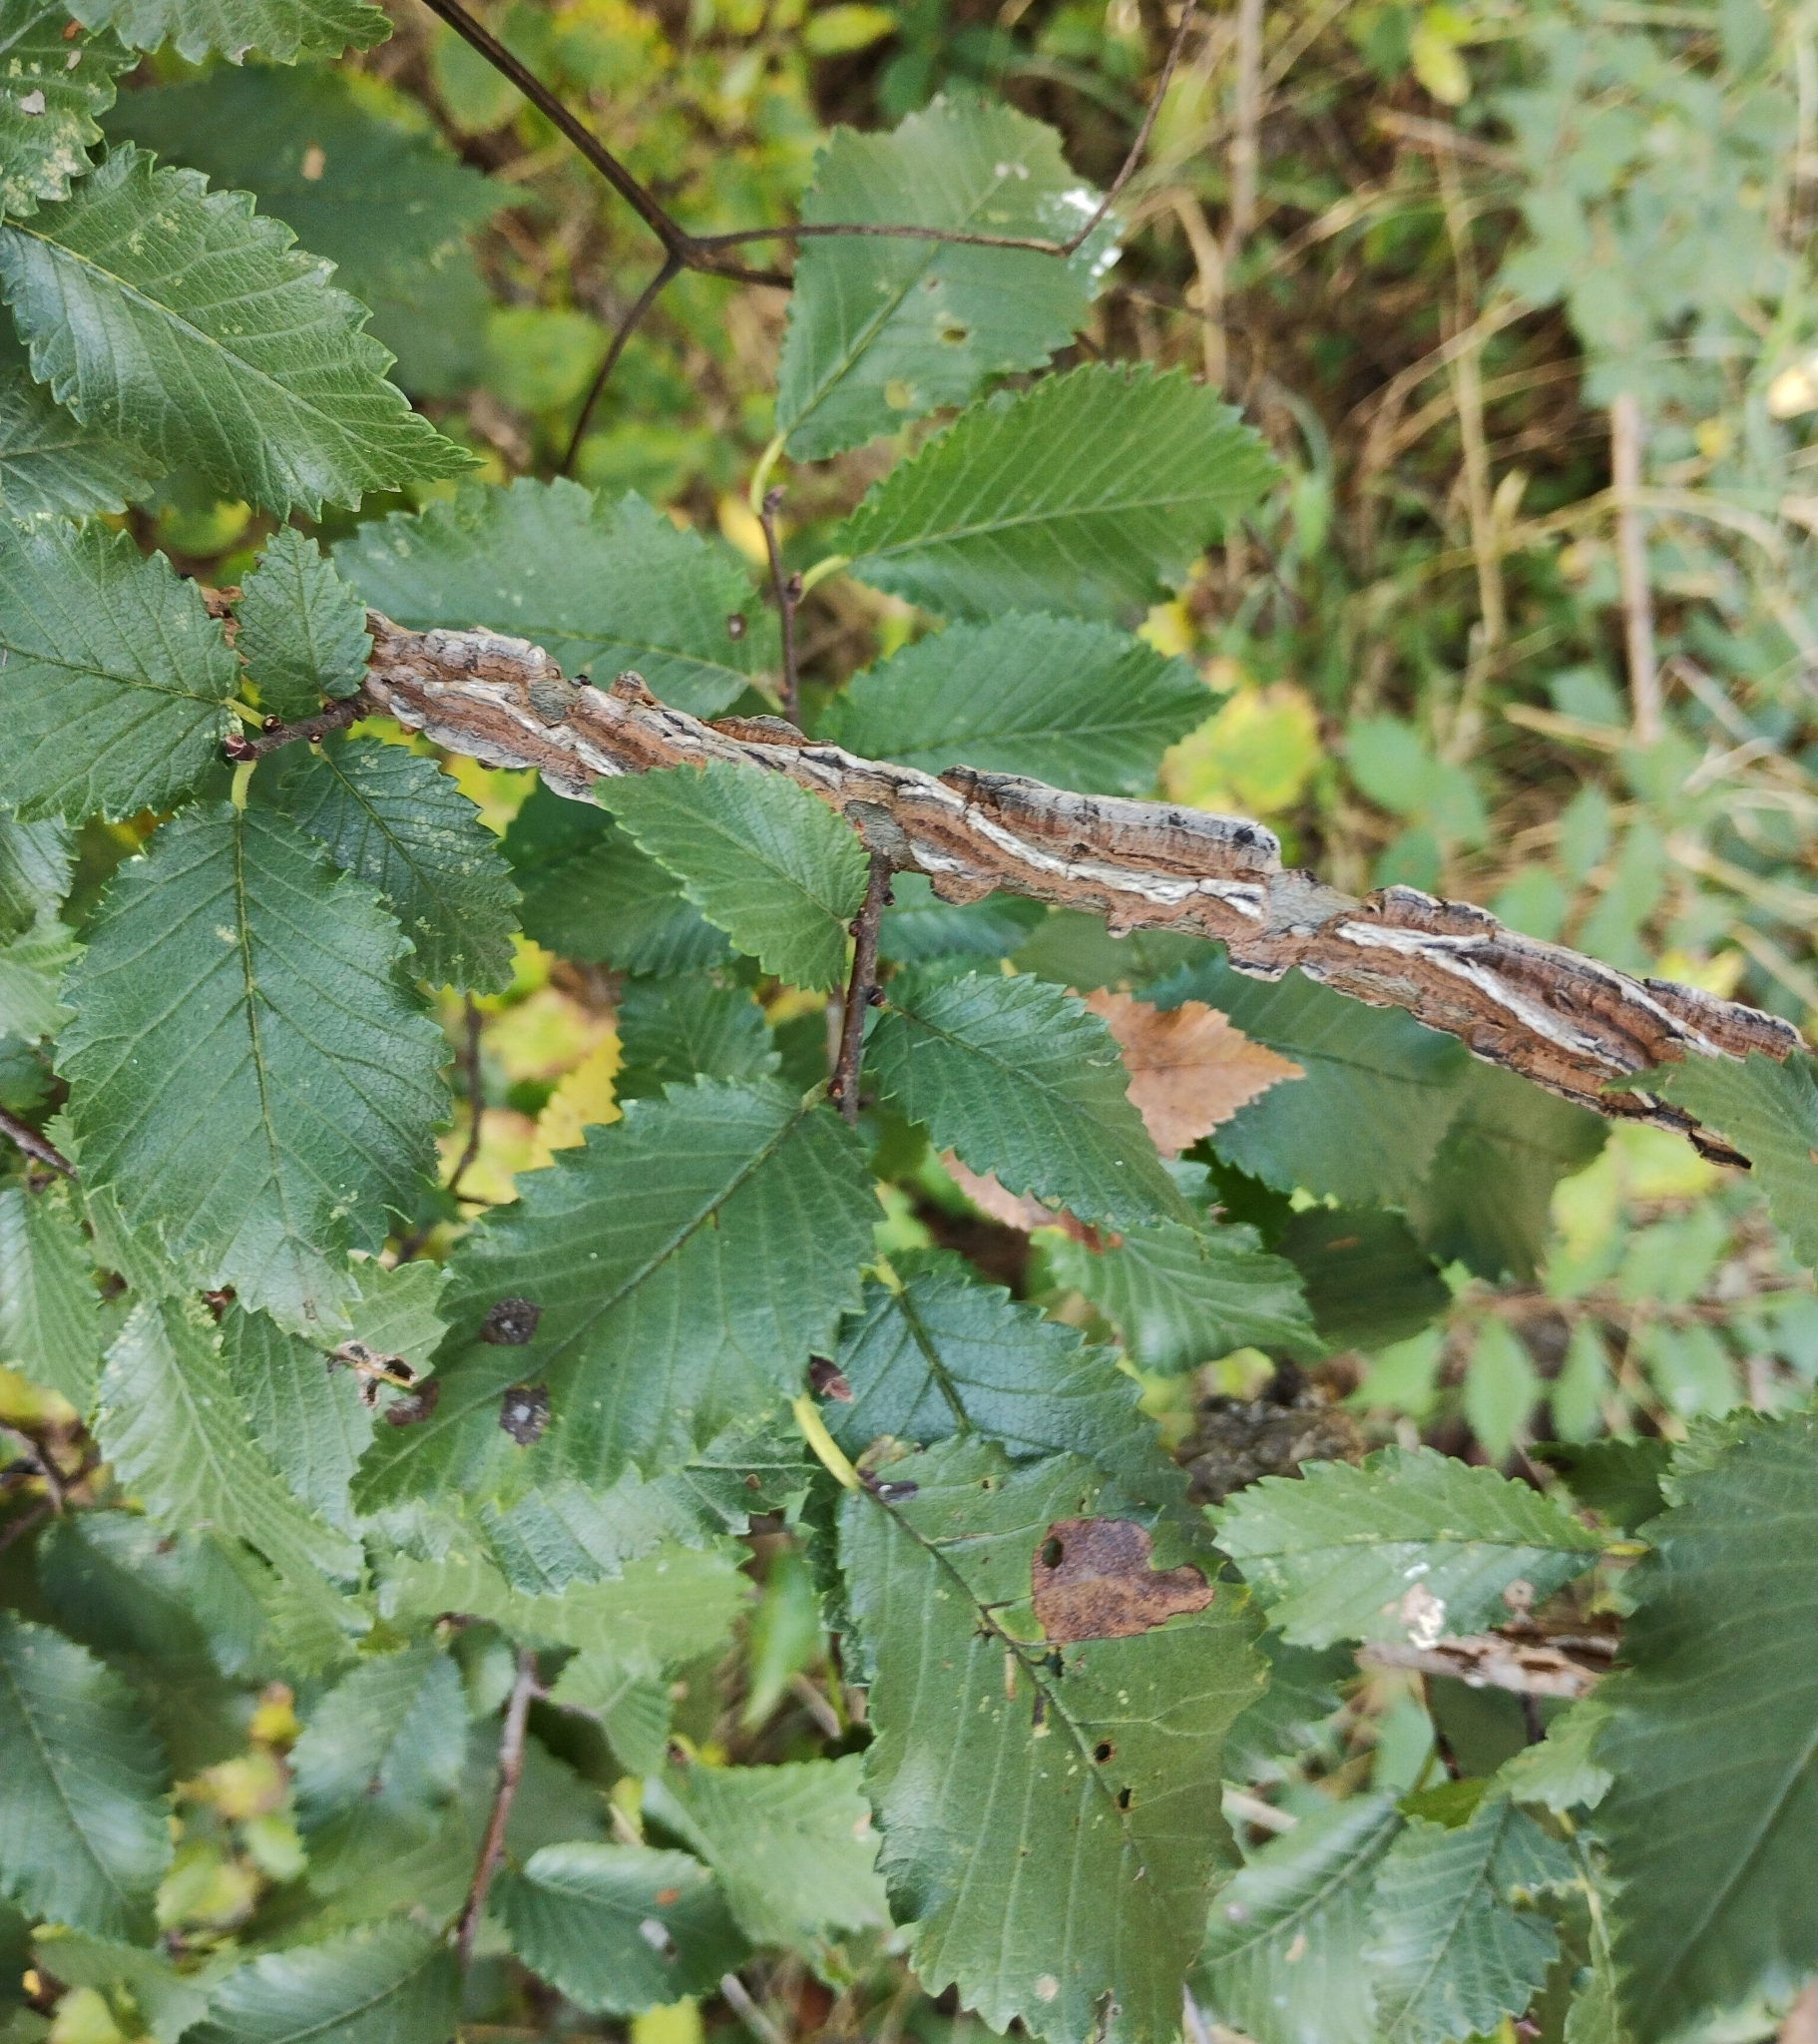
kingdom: Plantae
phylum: Tracheophyta
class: Magnoliopsida
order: Rosales
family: Ulmaceae
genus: Ulmus
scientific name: Ulmus minor
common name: Small-leaved elm
